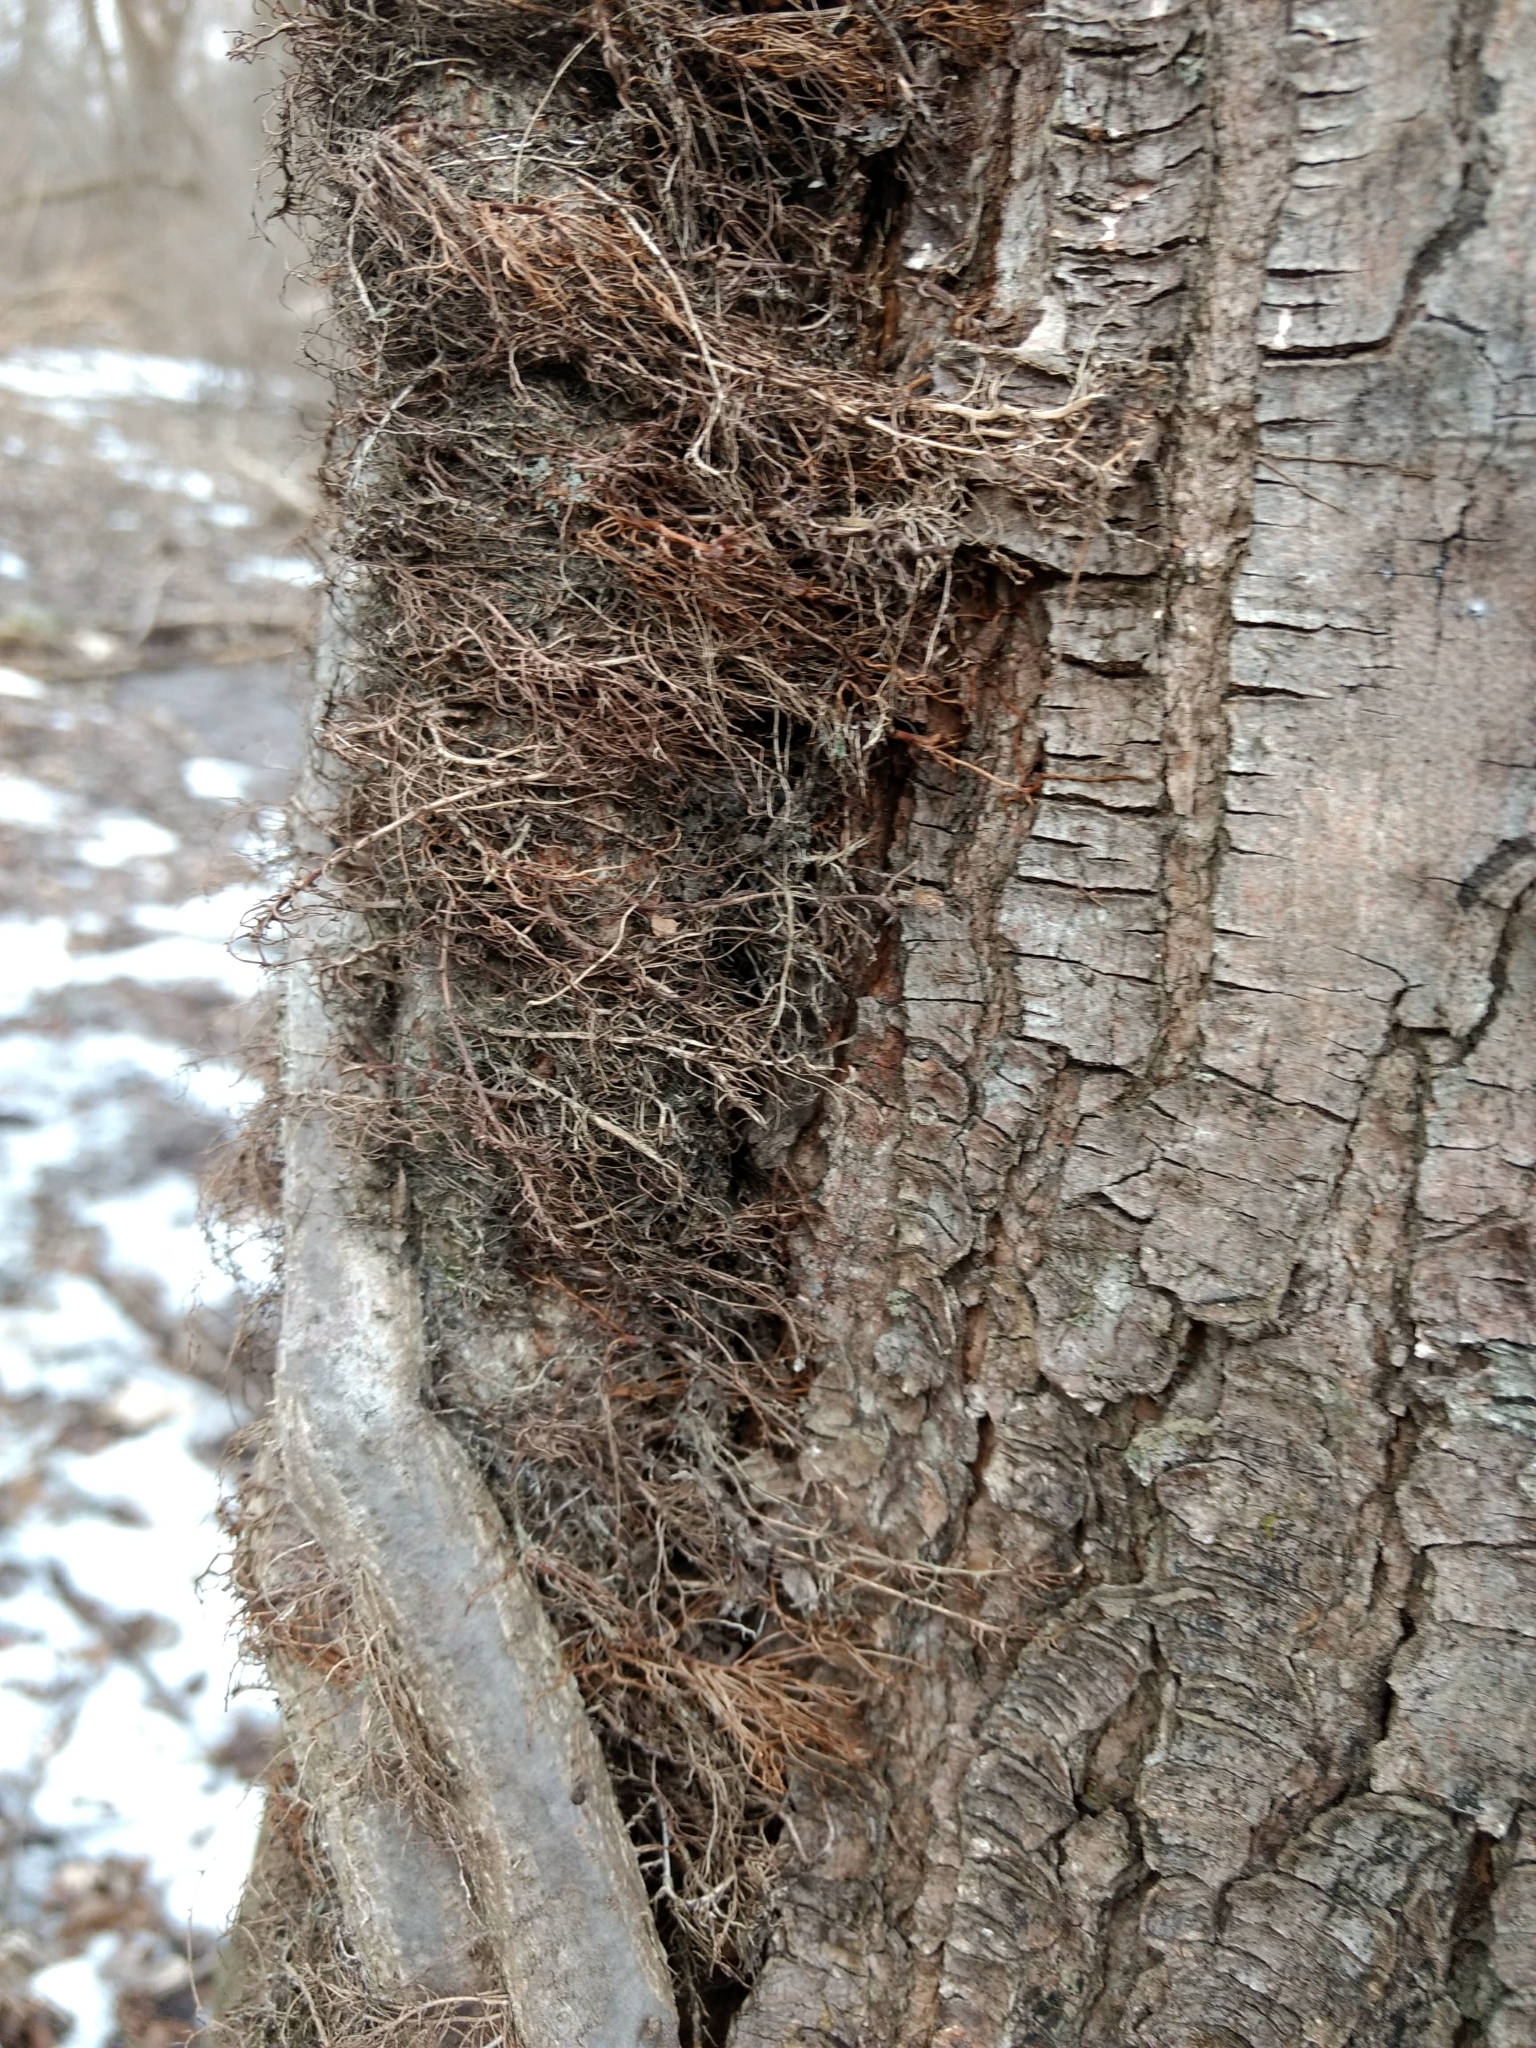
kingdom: Plantae
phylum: Tracheophyta
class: Magnoliopsida
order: Sapindales
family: Anacardiaceae
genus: Toxicodendron
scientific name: Toxicodendron radicans
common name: Poison ivy
